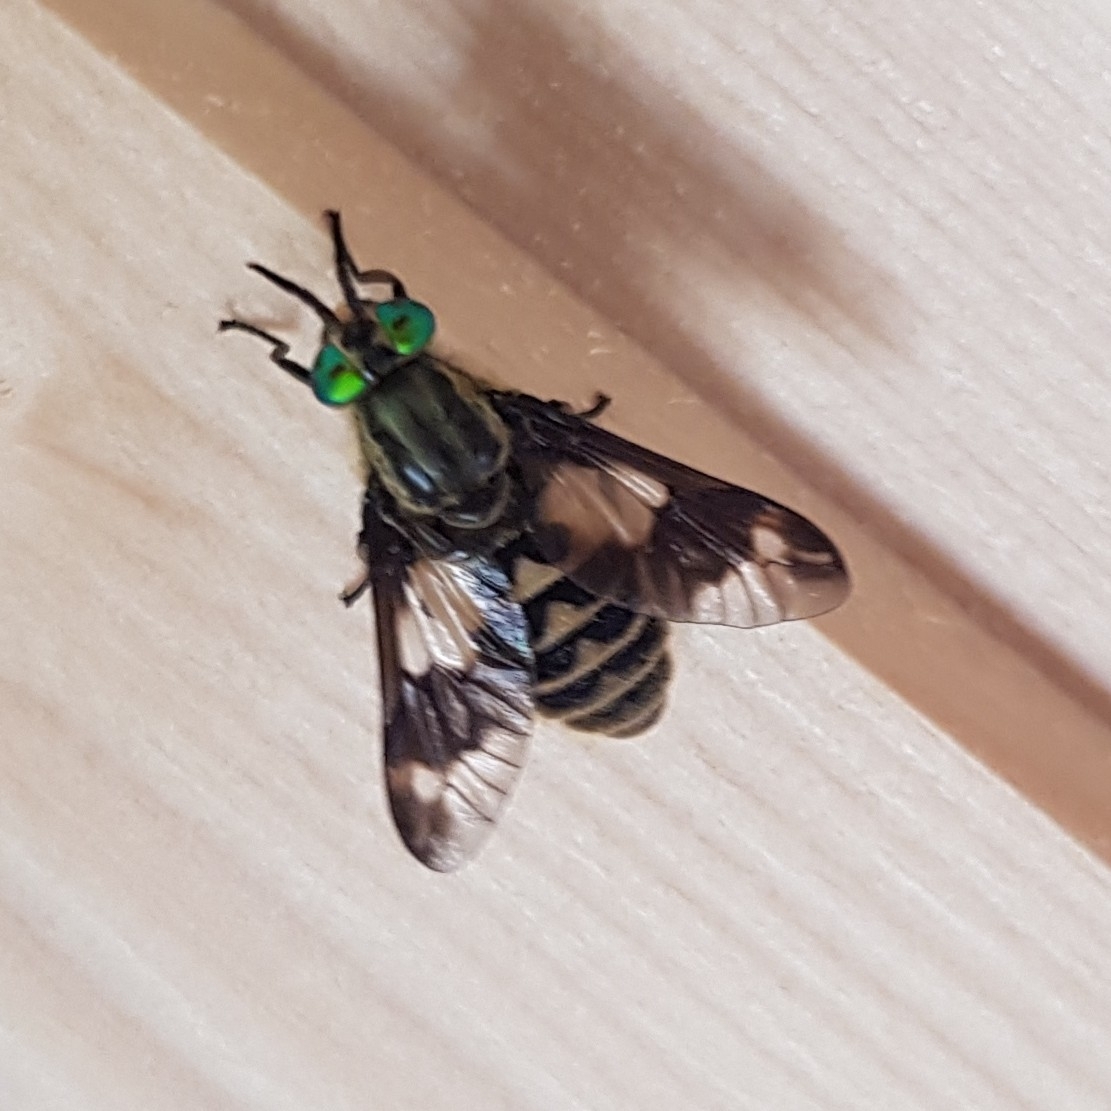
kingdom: Animalia
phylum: Arthropoda
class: Insecta
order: Diptera
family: Tabanidae
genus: Chrysops
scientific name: Chrysops relictus
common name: Twin-lobed deerfly
